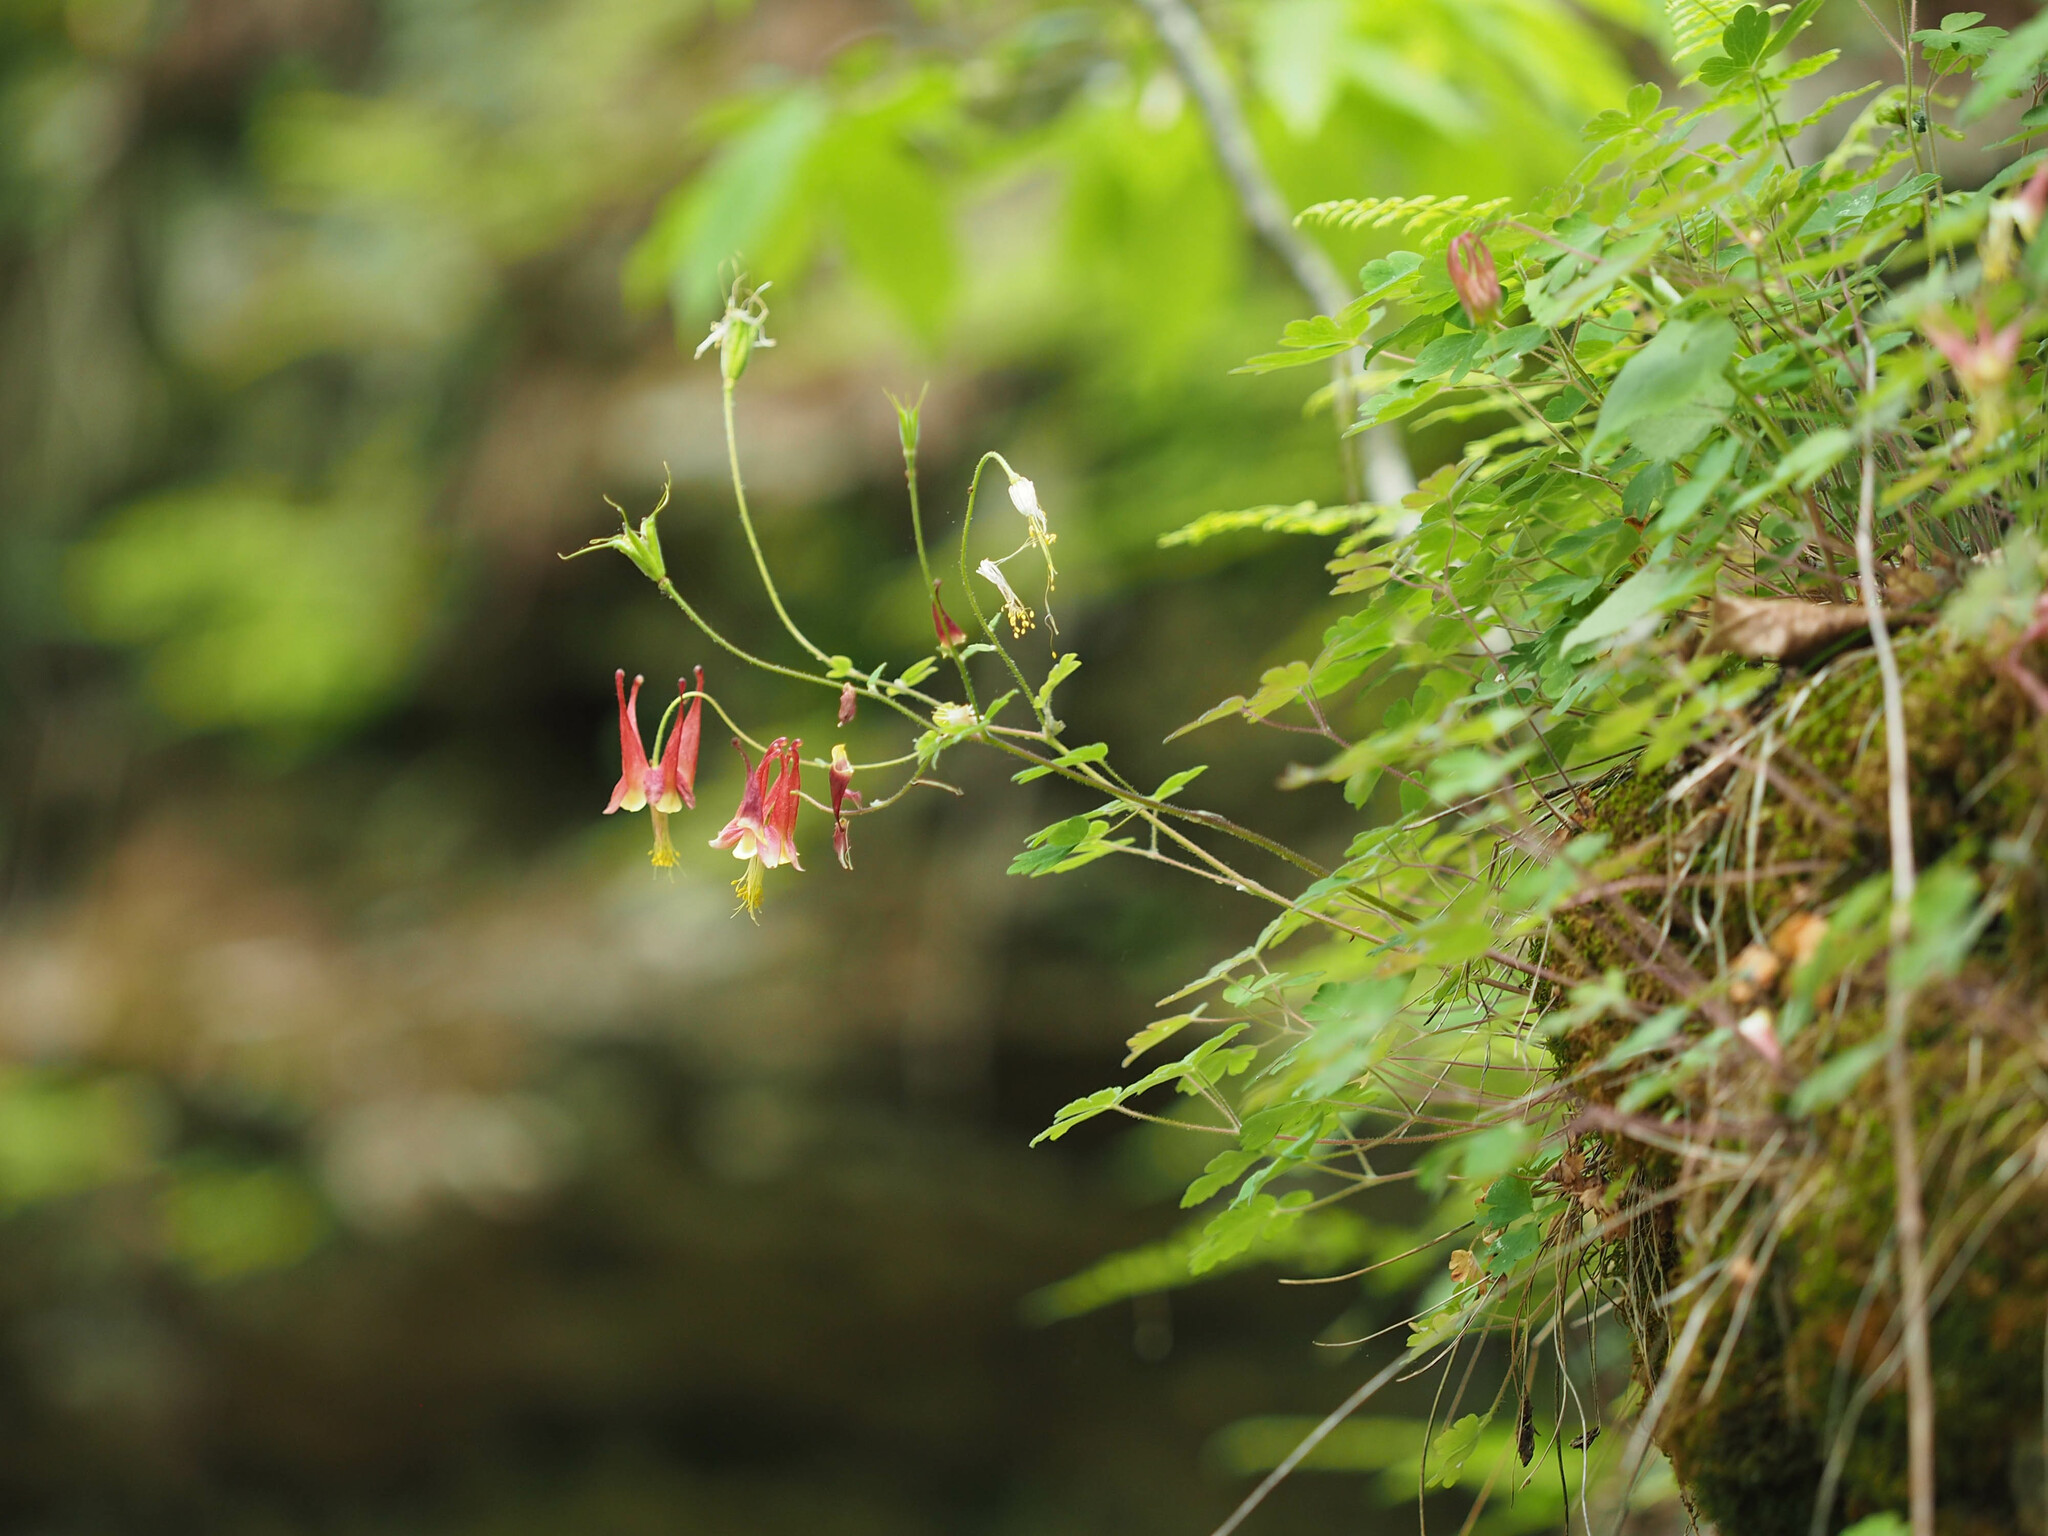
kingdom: Plantae
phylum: Tracheophyta
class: Magnoliopsida
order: Ranunculales
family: Ranunculaceae
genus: Aquilegia
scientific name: Aquilegia canadensis
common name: American columbine
